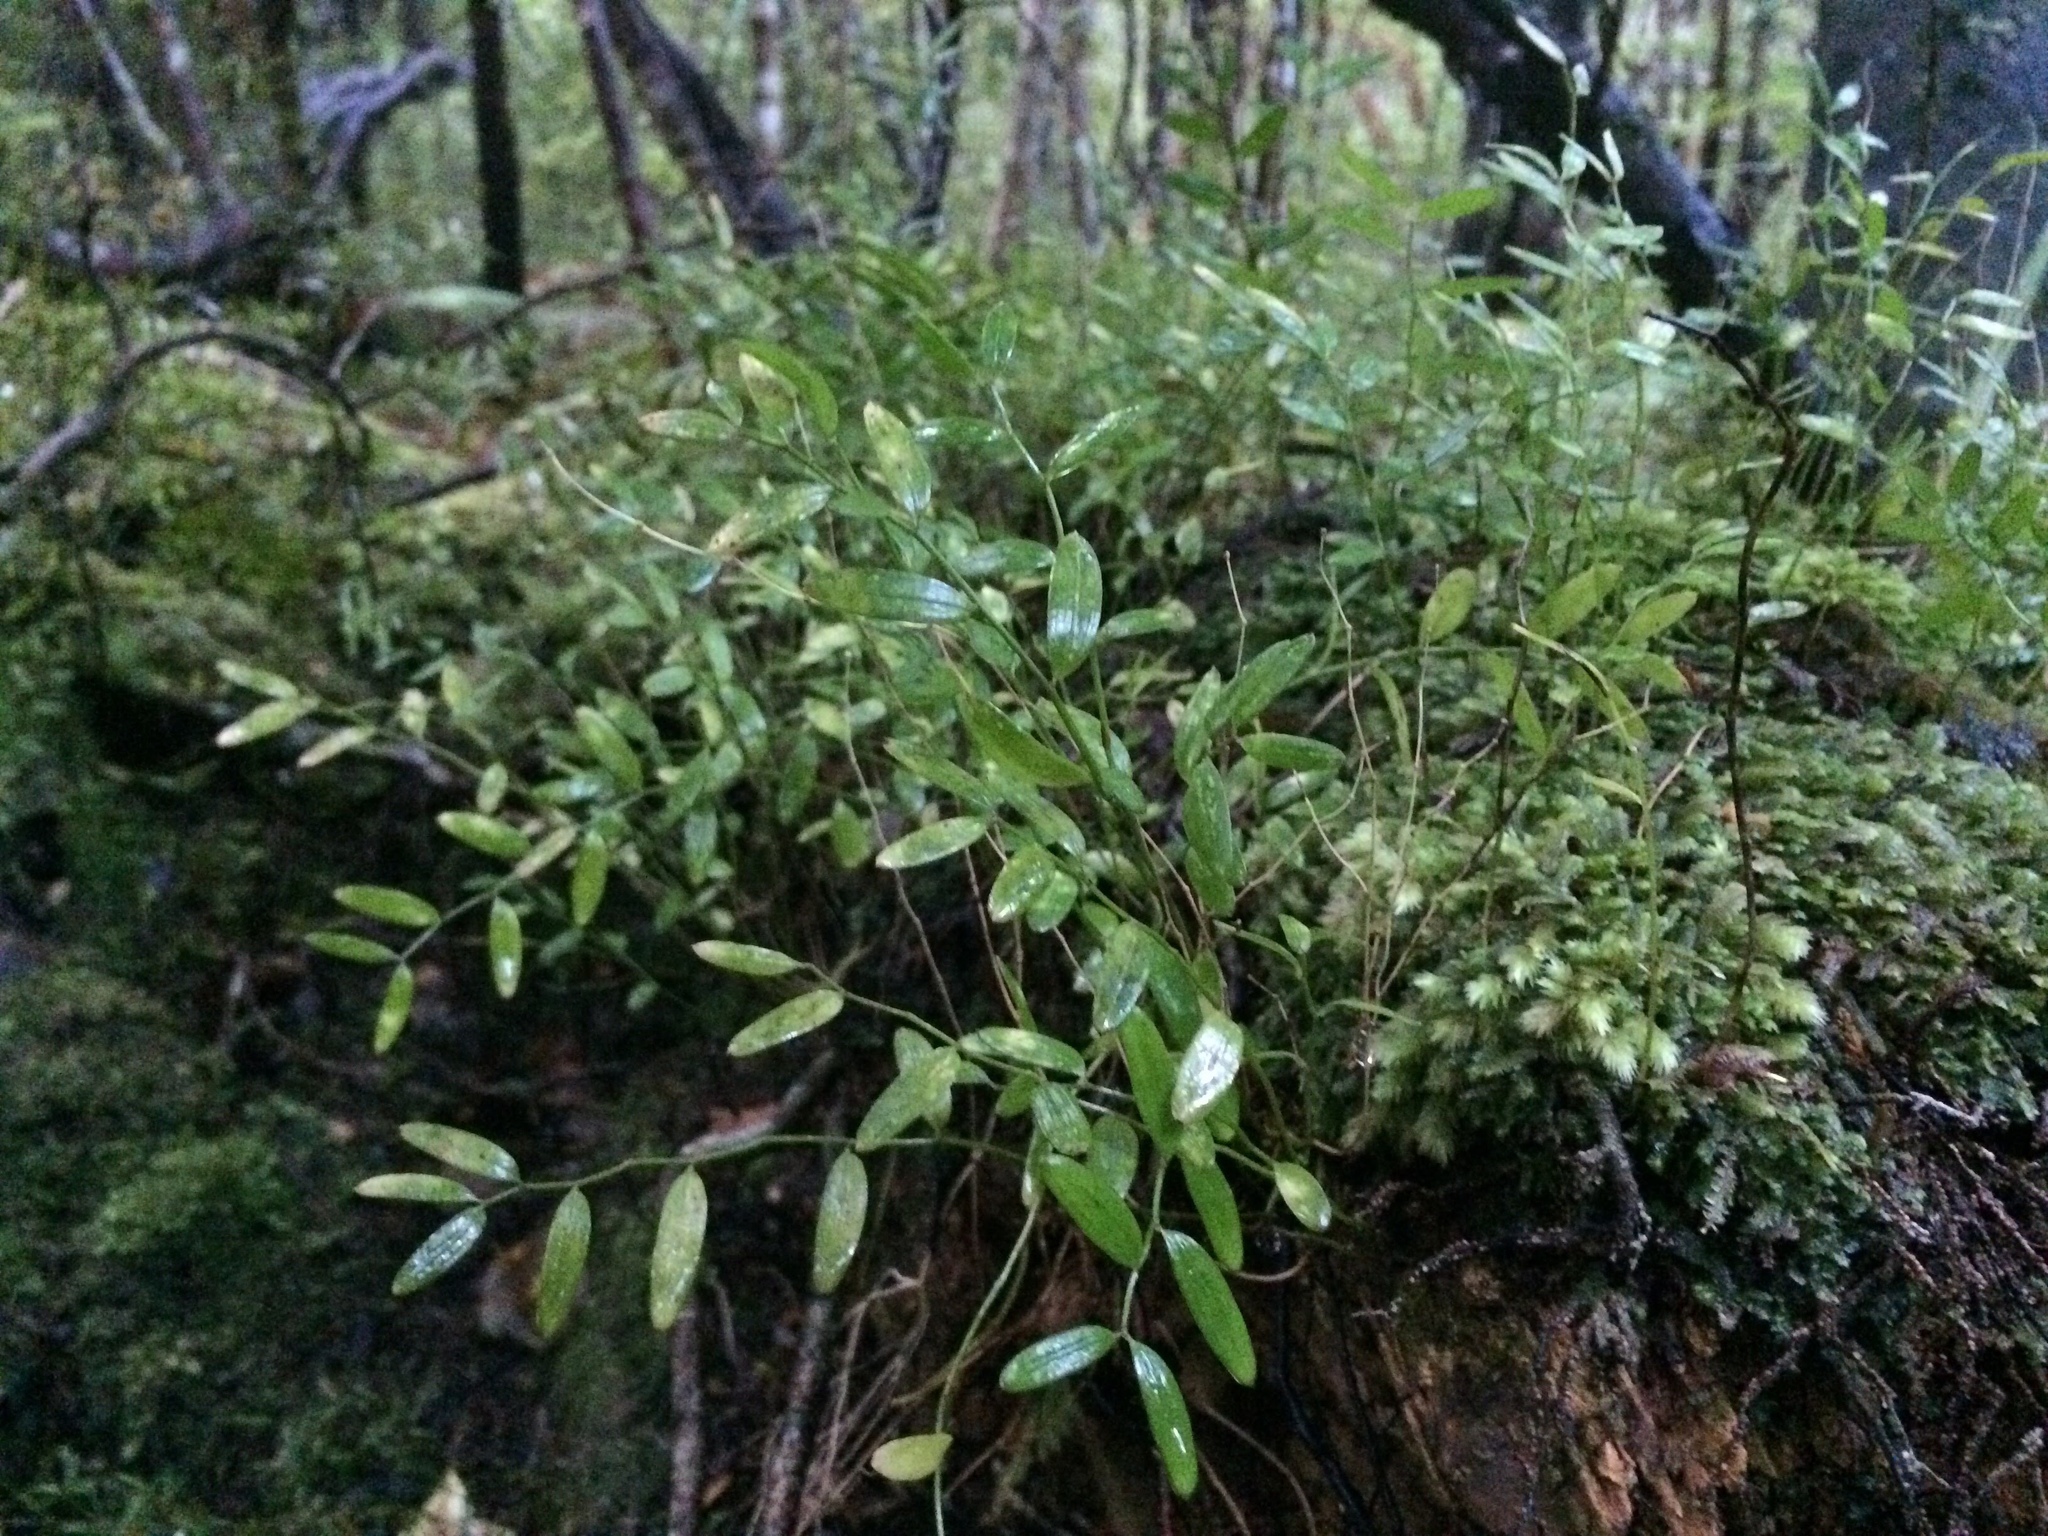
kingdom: Plantae
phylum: Tracheophyta
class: Liliopsida
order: Liliales
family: Alstroemeriaceae
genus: Luzuriaga
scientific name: Luzuriaga parviflora
